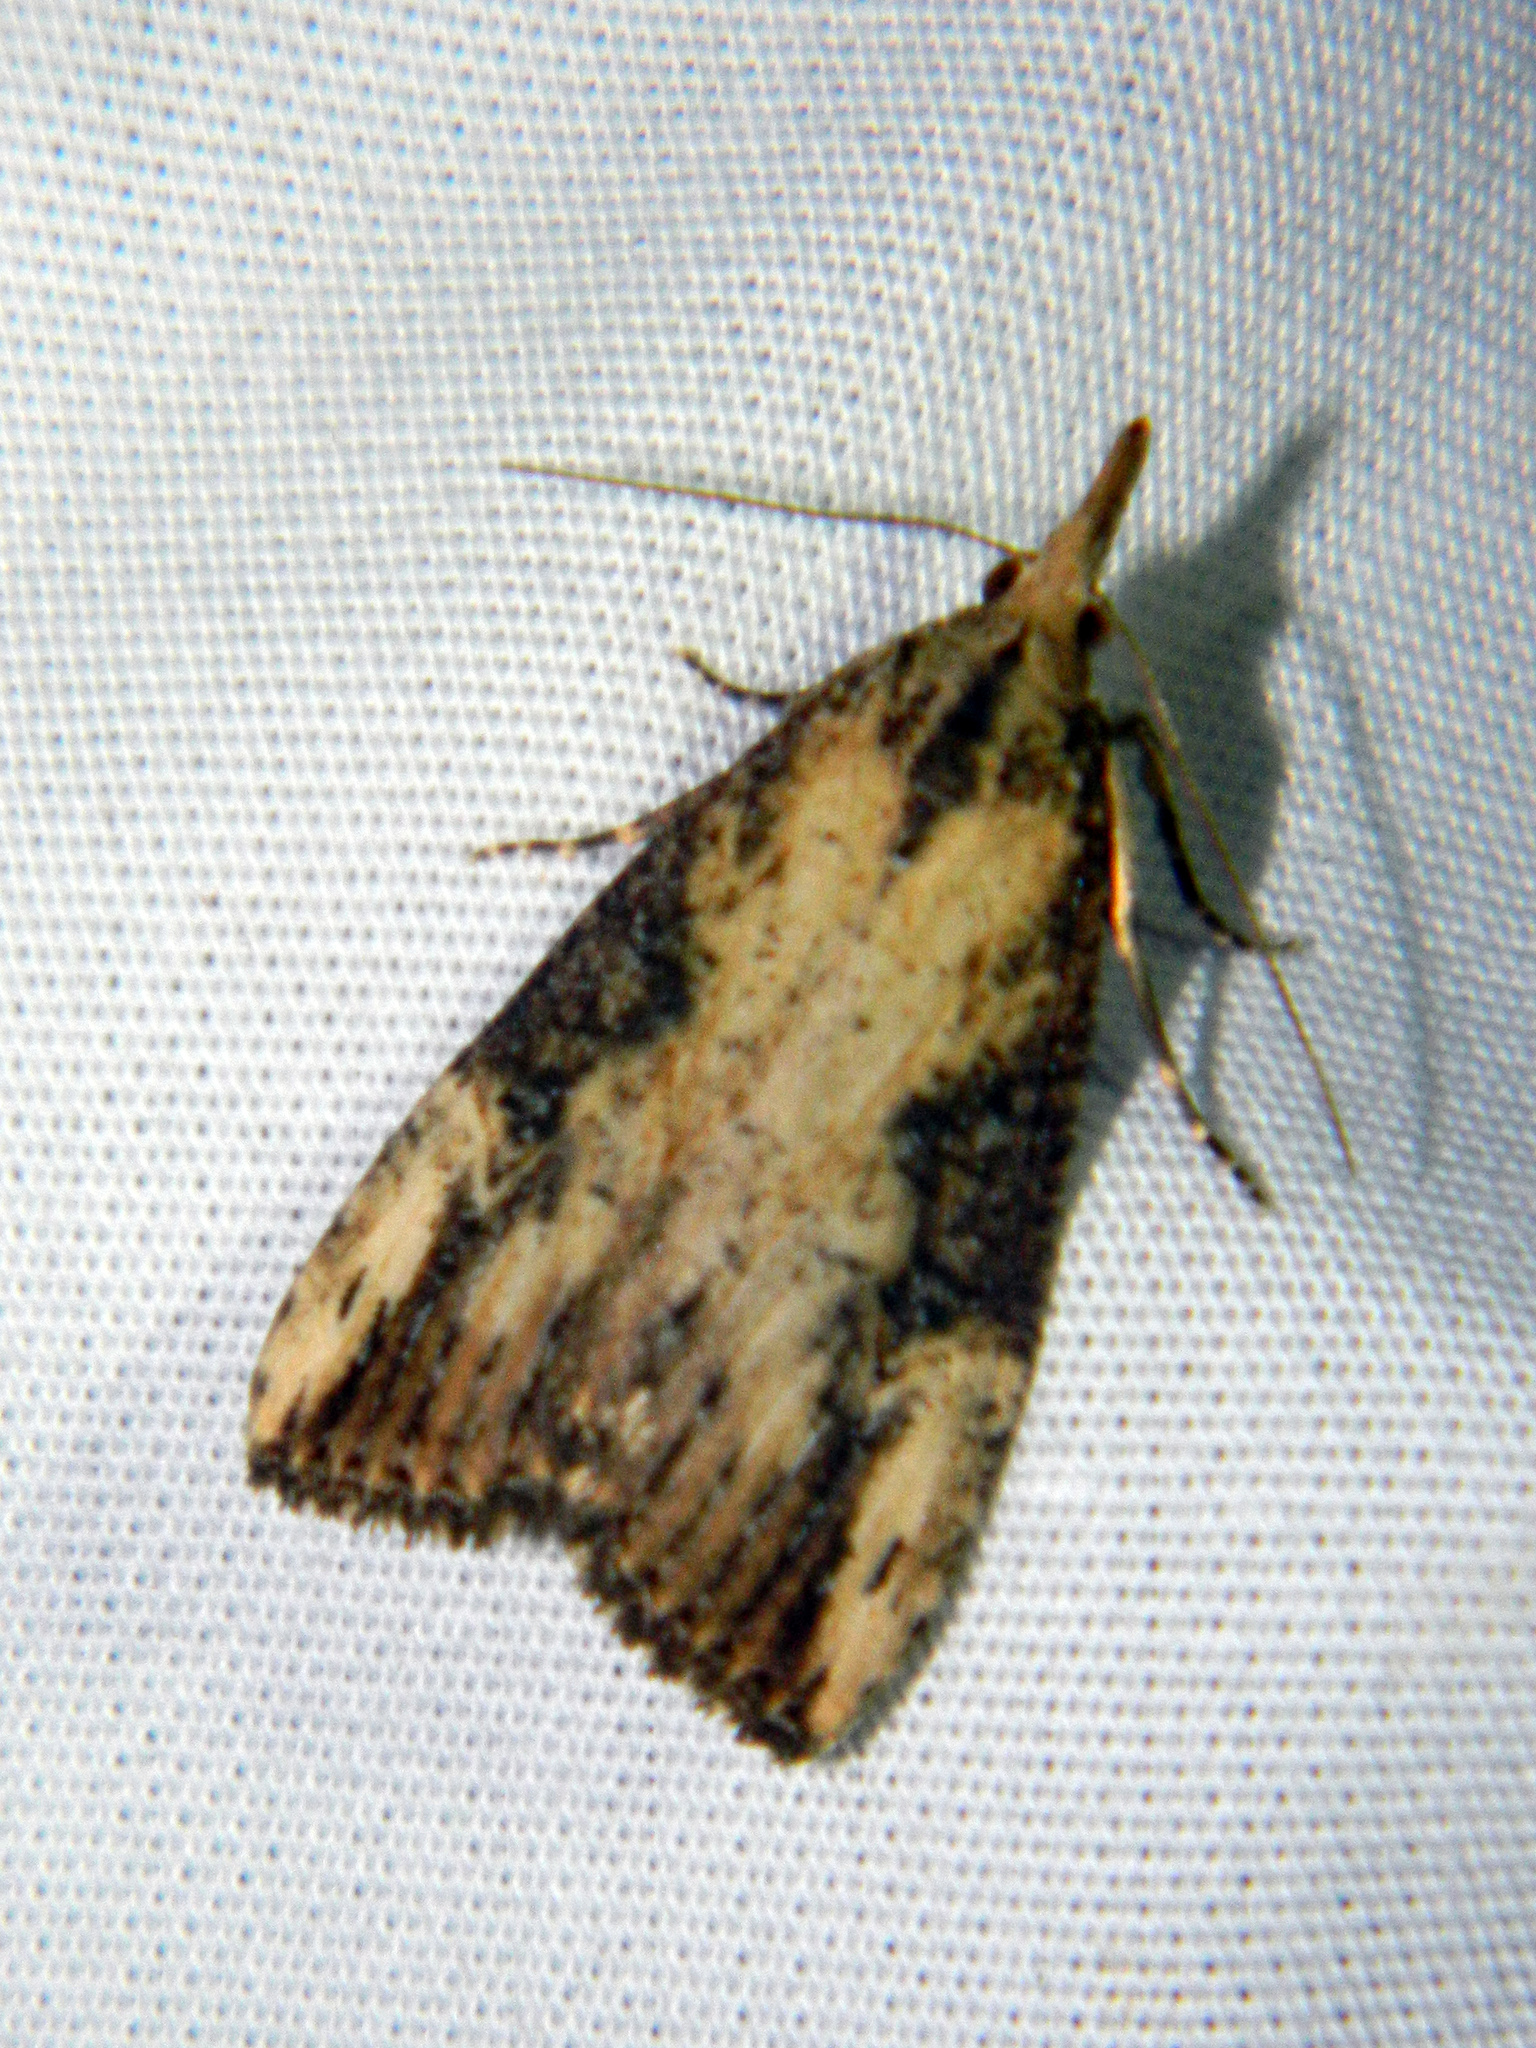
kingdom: Animalia
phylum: Arthropoda
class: Insecta
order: Lepidoptera
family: Erebidae
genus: Hypena
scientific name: Hypena humuli
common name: Hop vine snout
